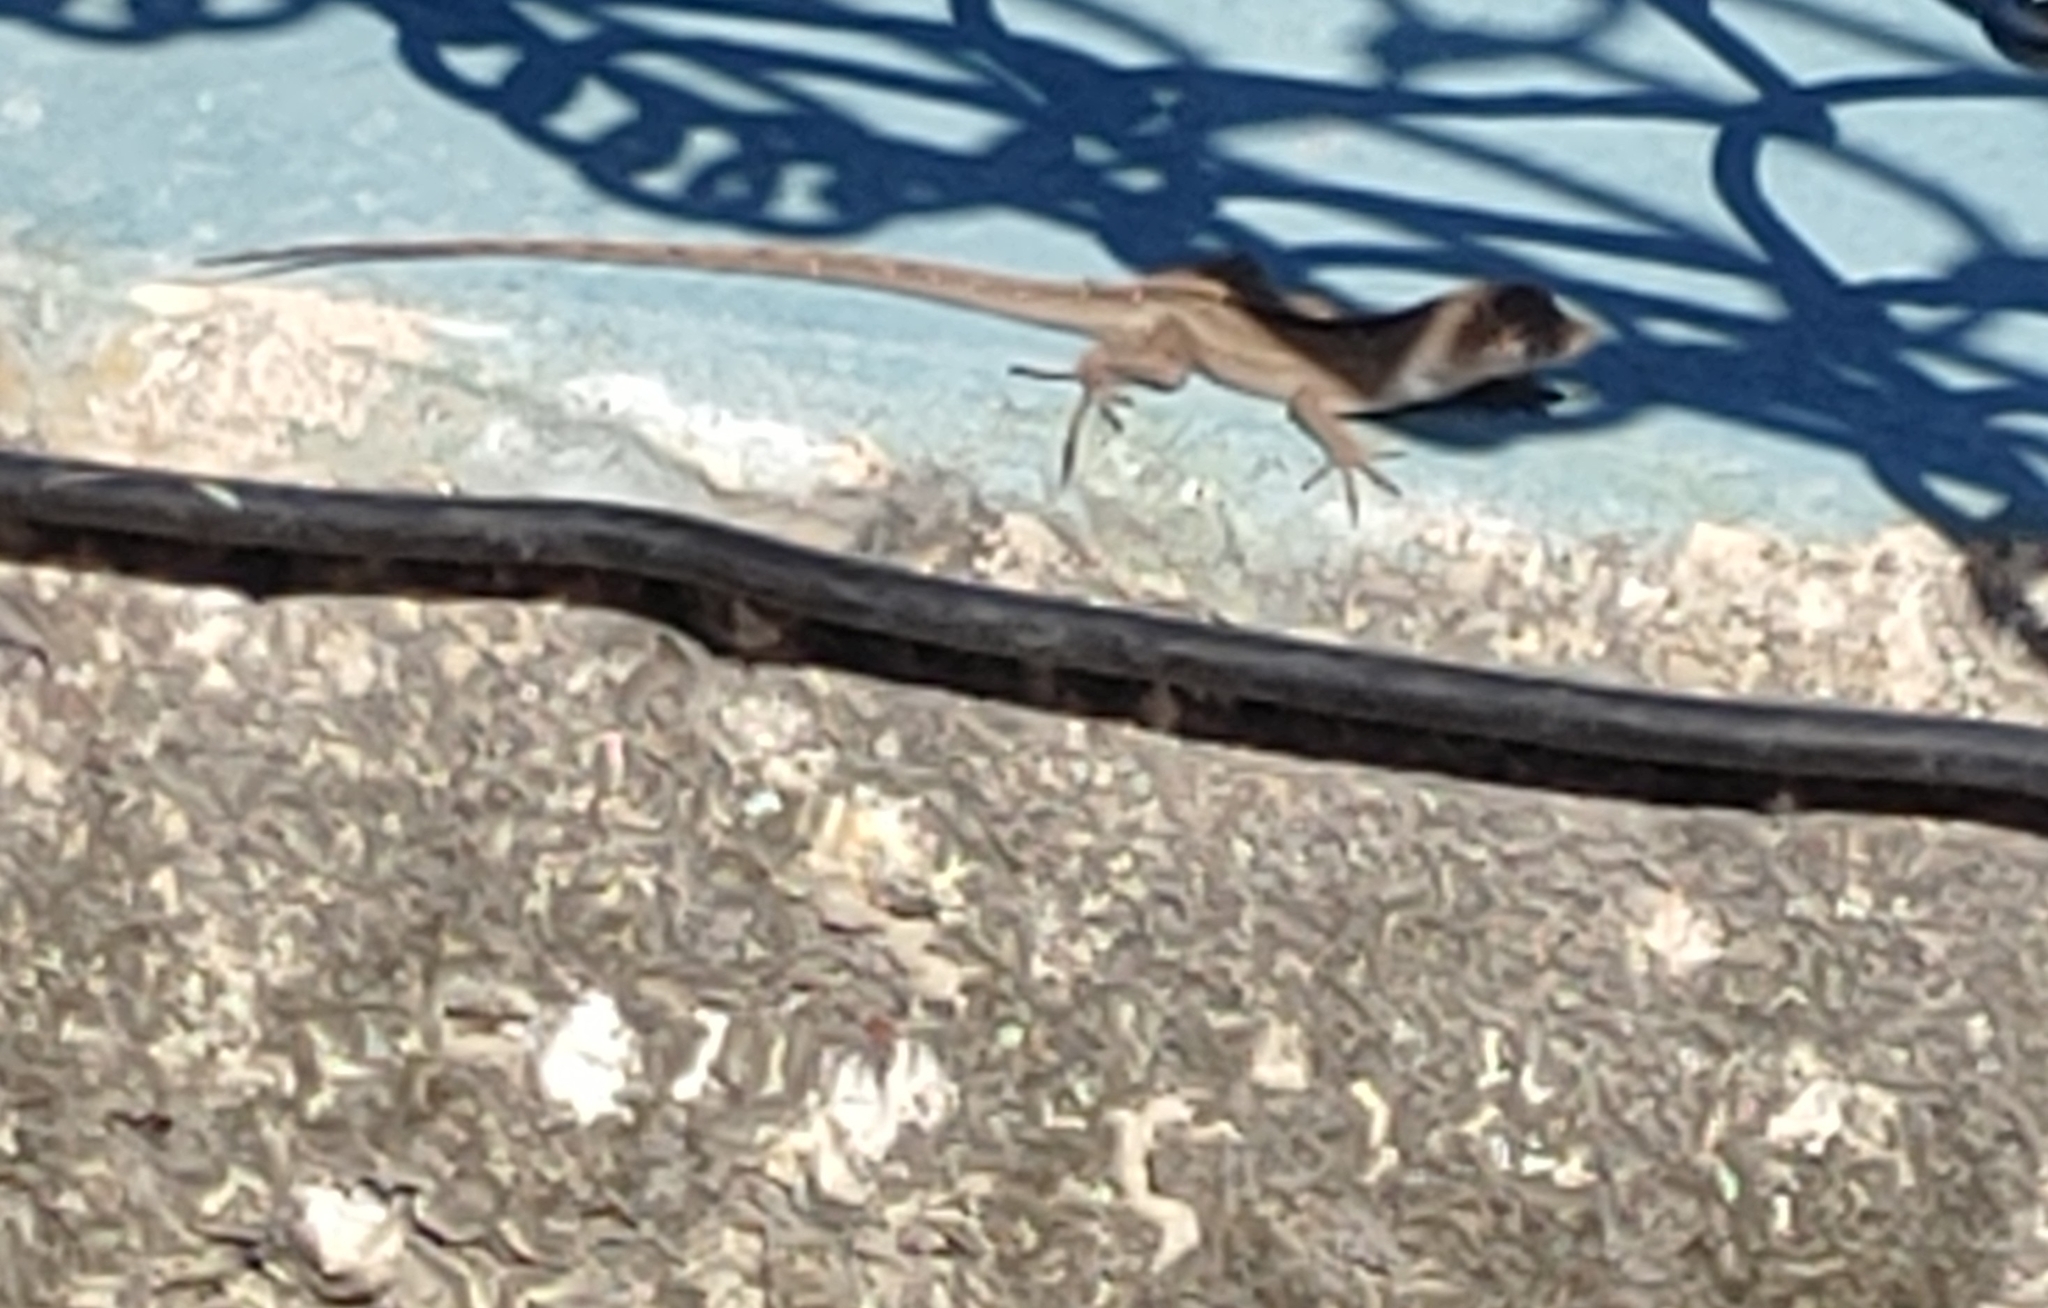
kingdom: Animalia
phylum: Chordata
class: Squamata
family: Dactyloidae
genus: Anolis
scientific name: Anolis sagrei
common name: Brown anole
